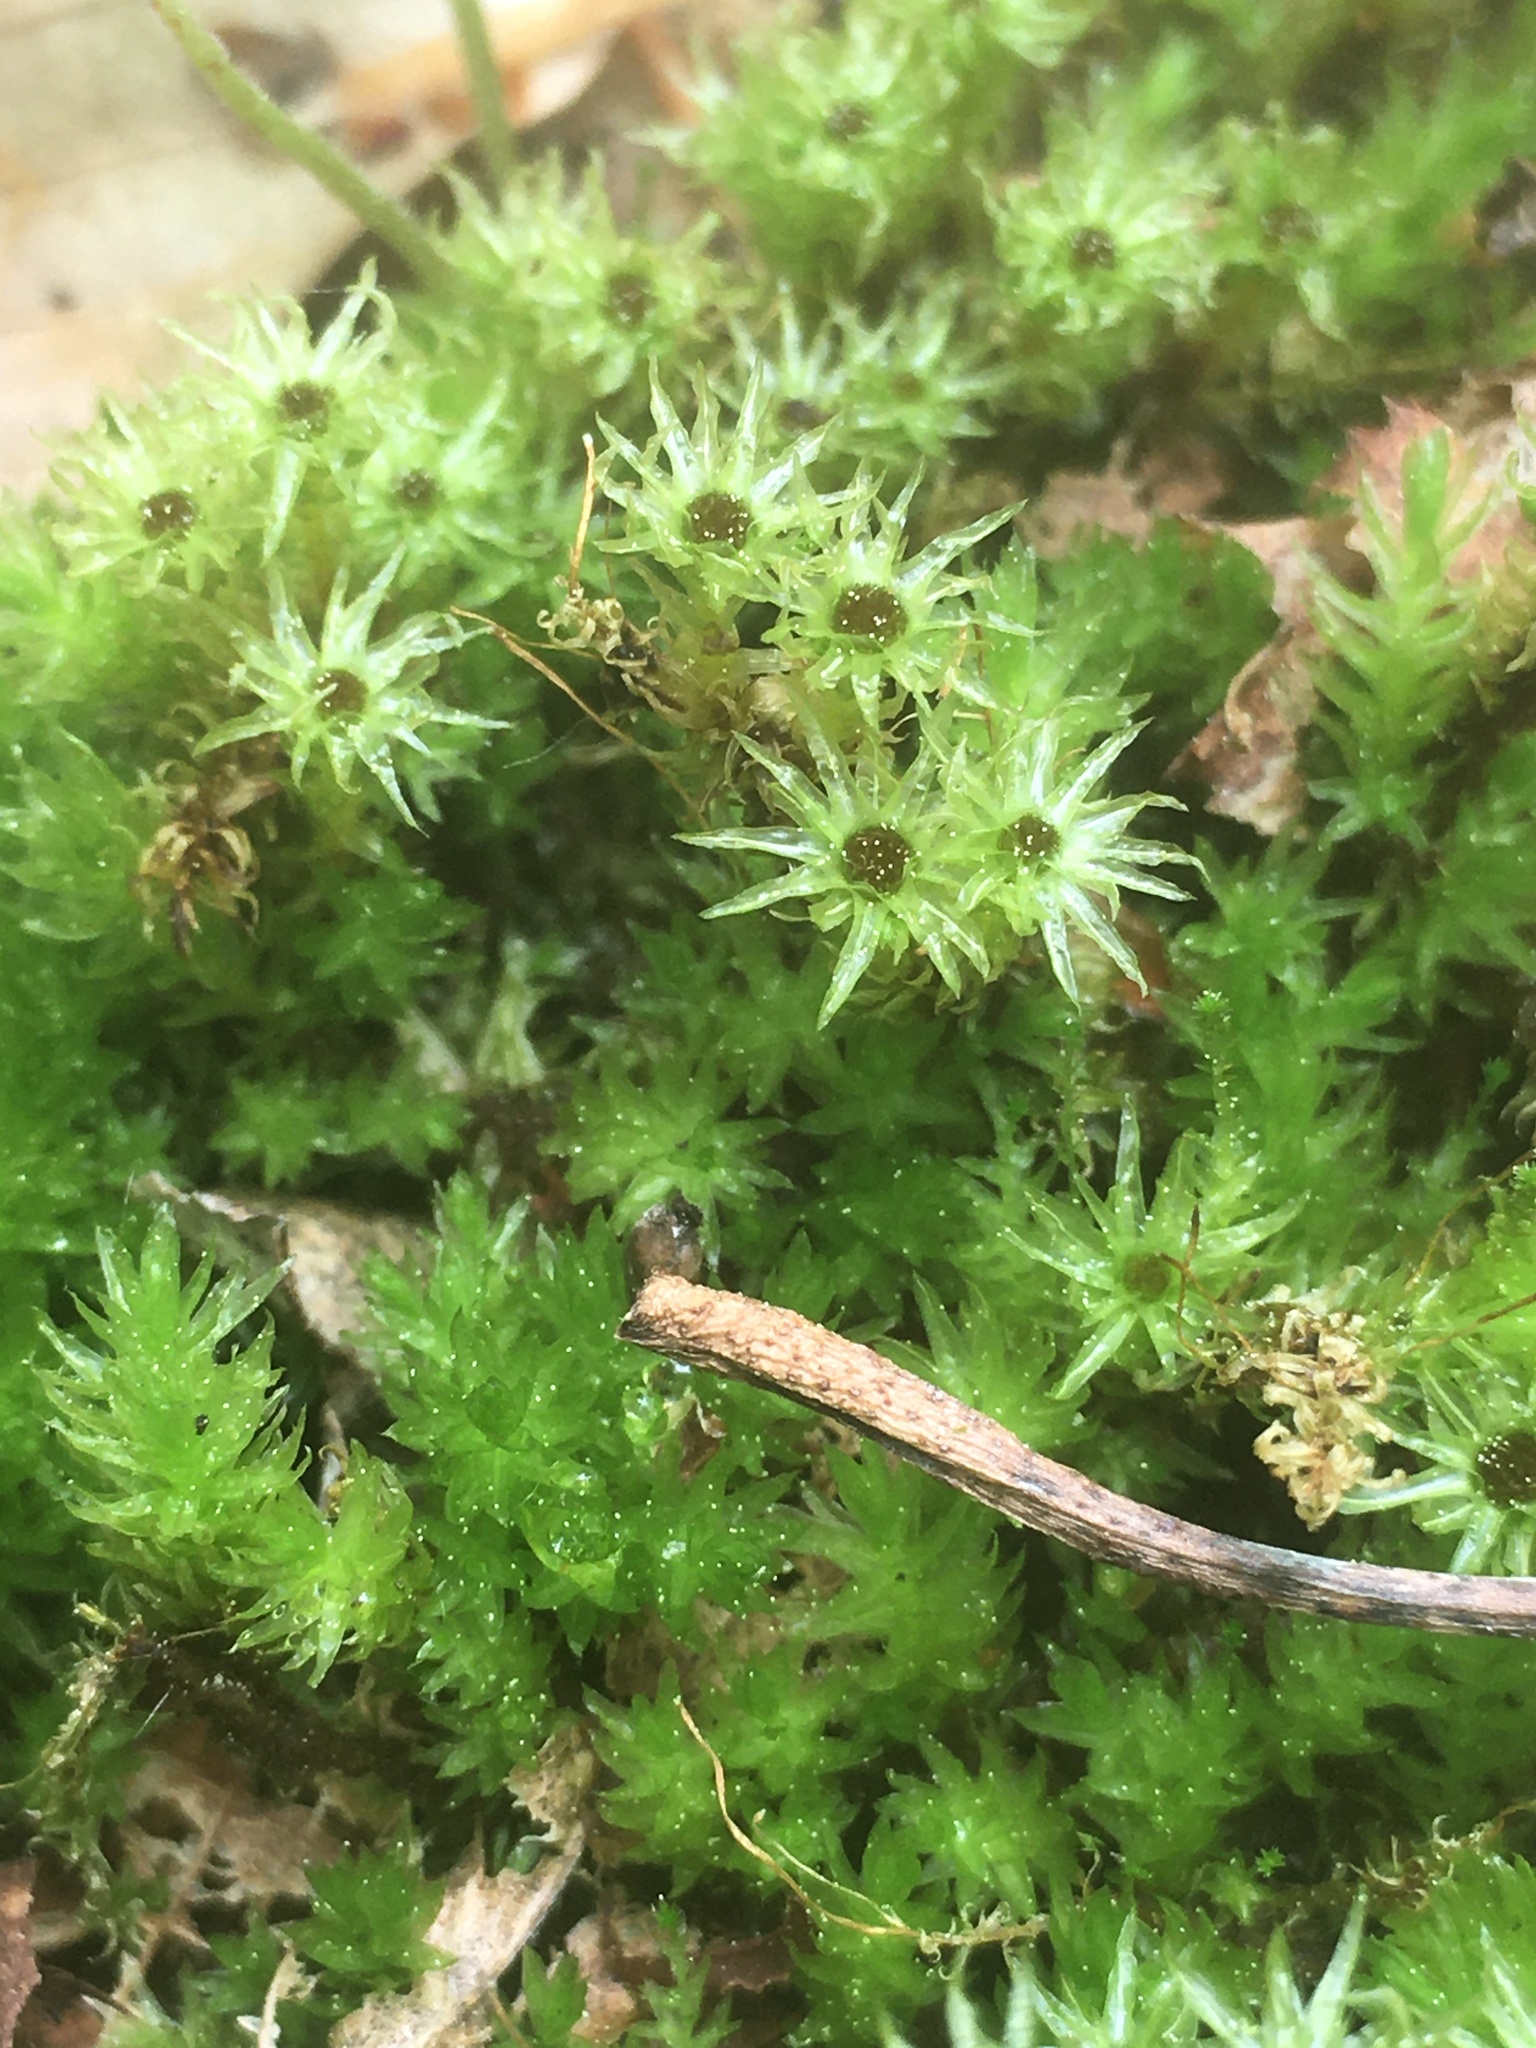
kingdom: Plantae
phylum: Bryophyta
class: Polytrichopsida
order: Polytrichales
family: Polytrichaceae
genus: Atrichum
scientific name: Atrichum
